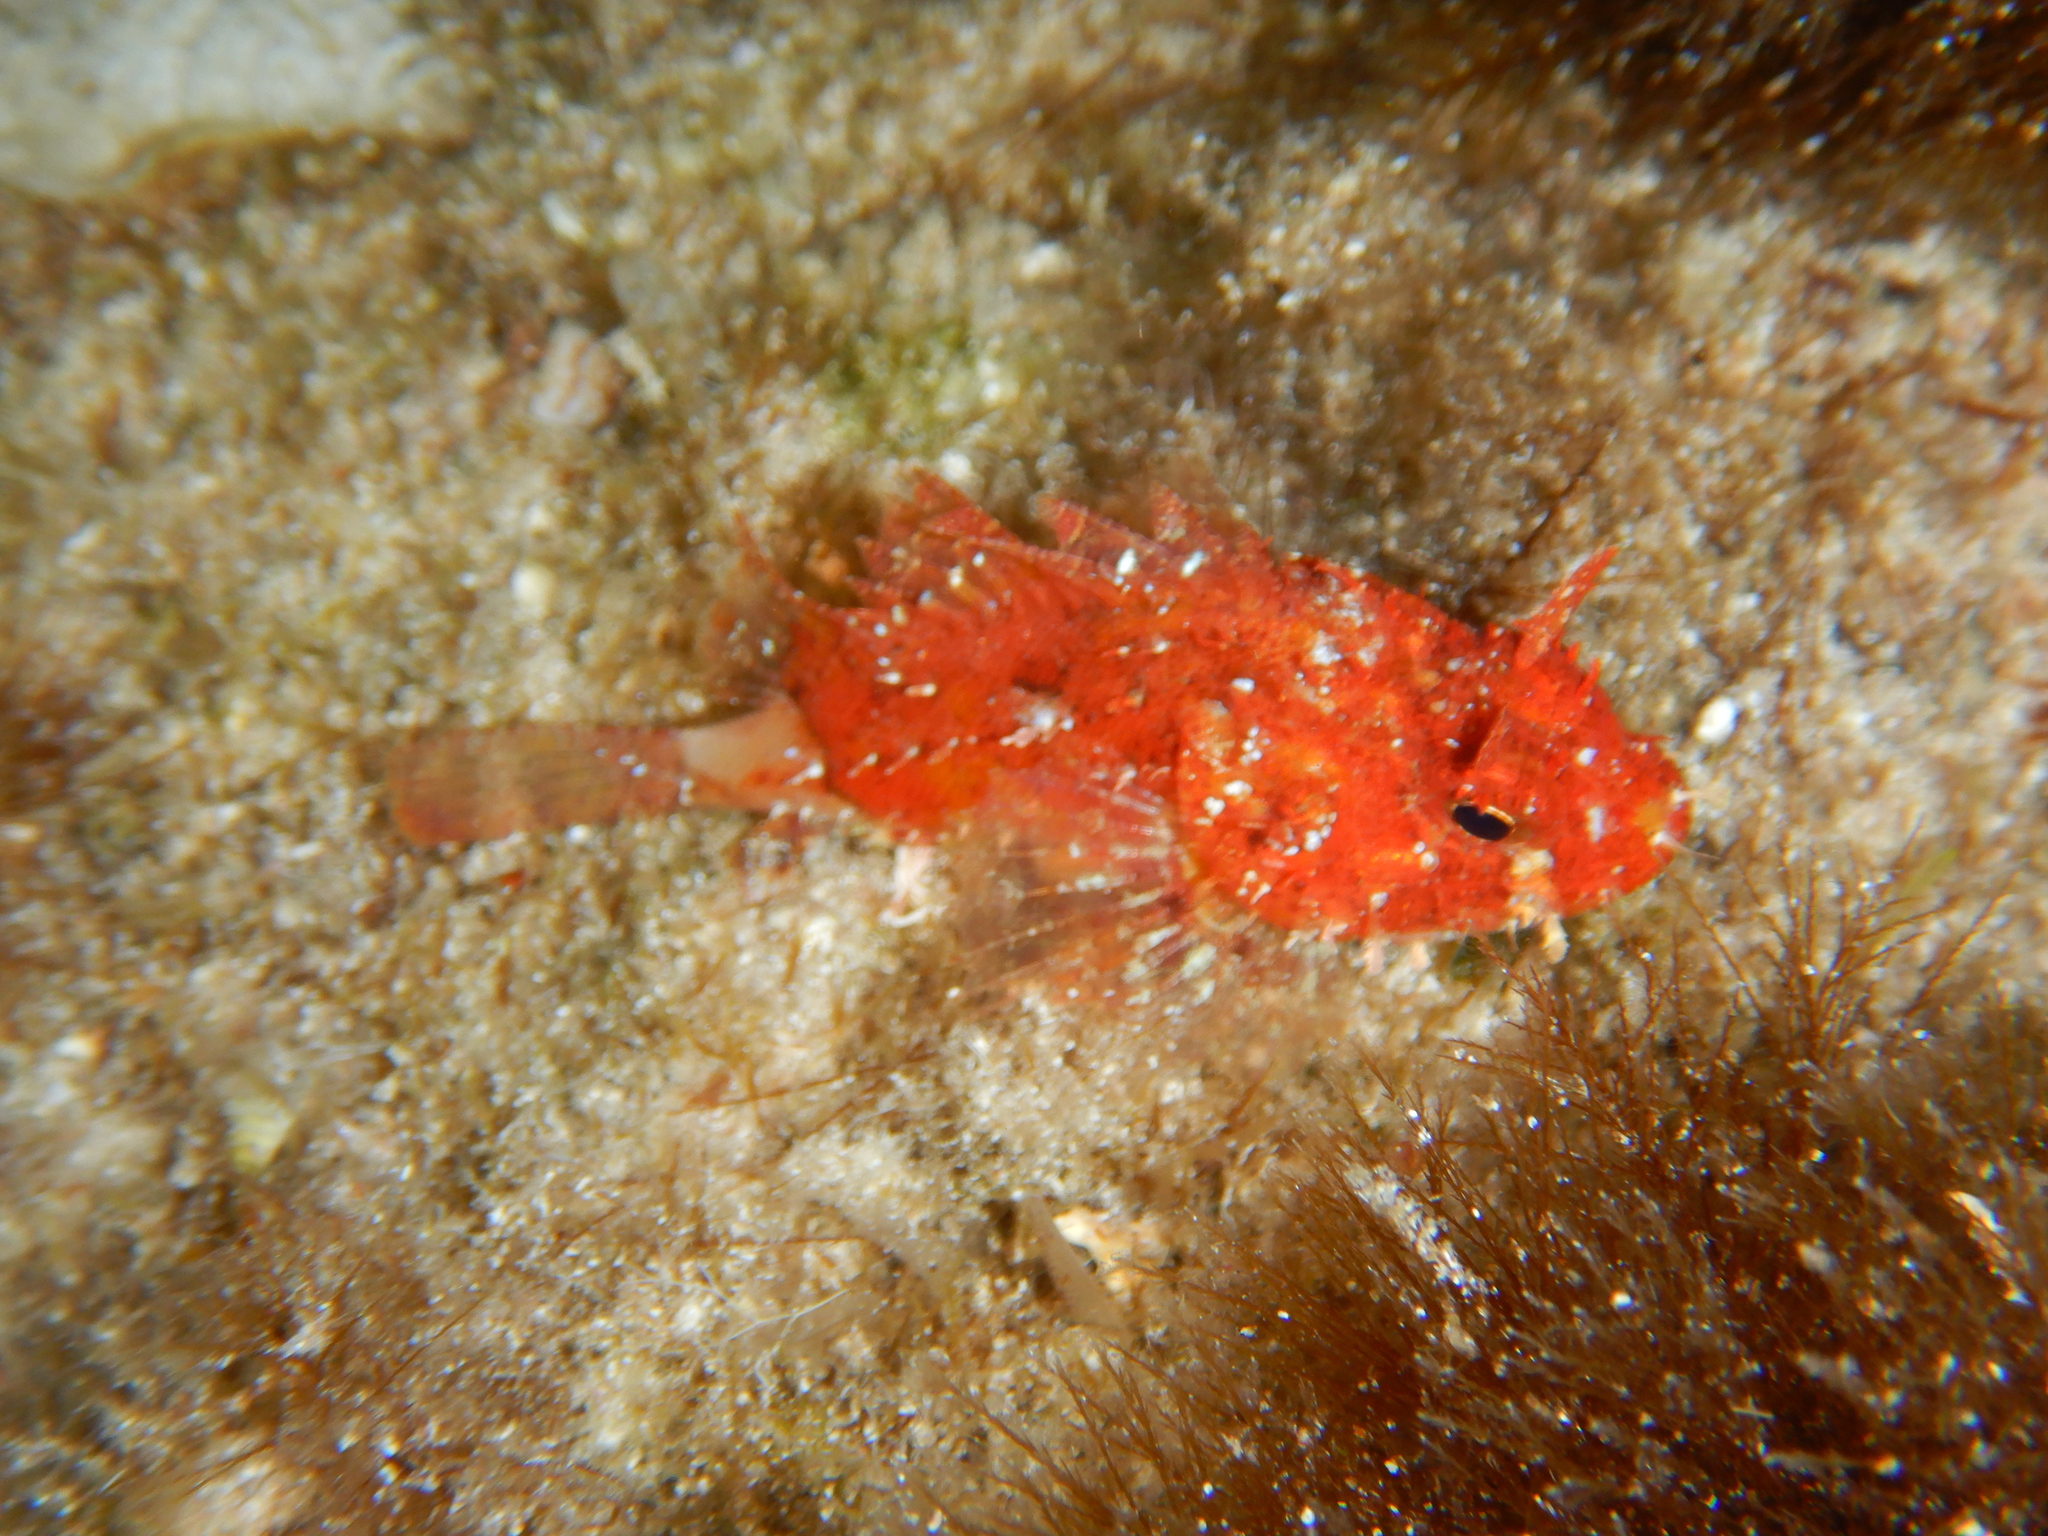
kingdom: Animalia
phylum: Chordata
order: Scorpaeniformes
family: Scorpaenidae
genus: Scorpaena
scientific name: Scorpaena porcus
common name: Black scorpionfish
